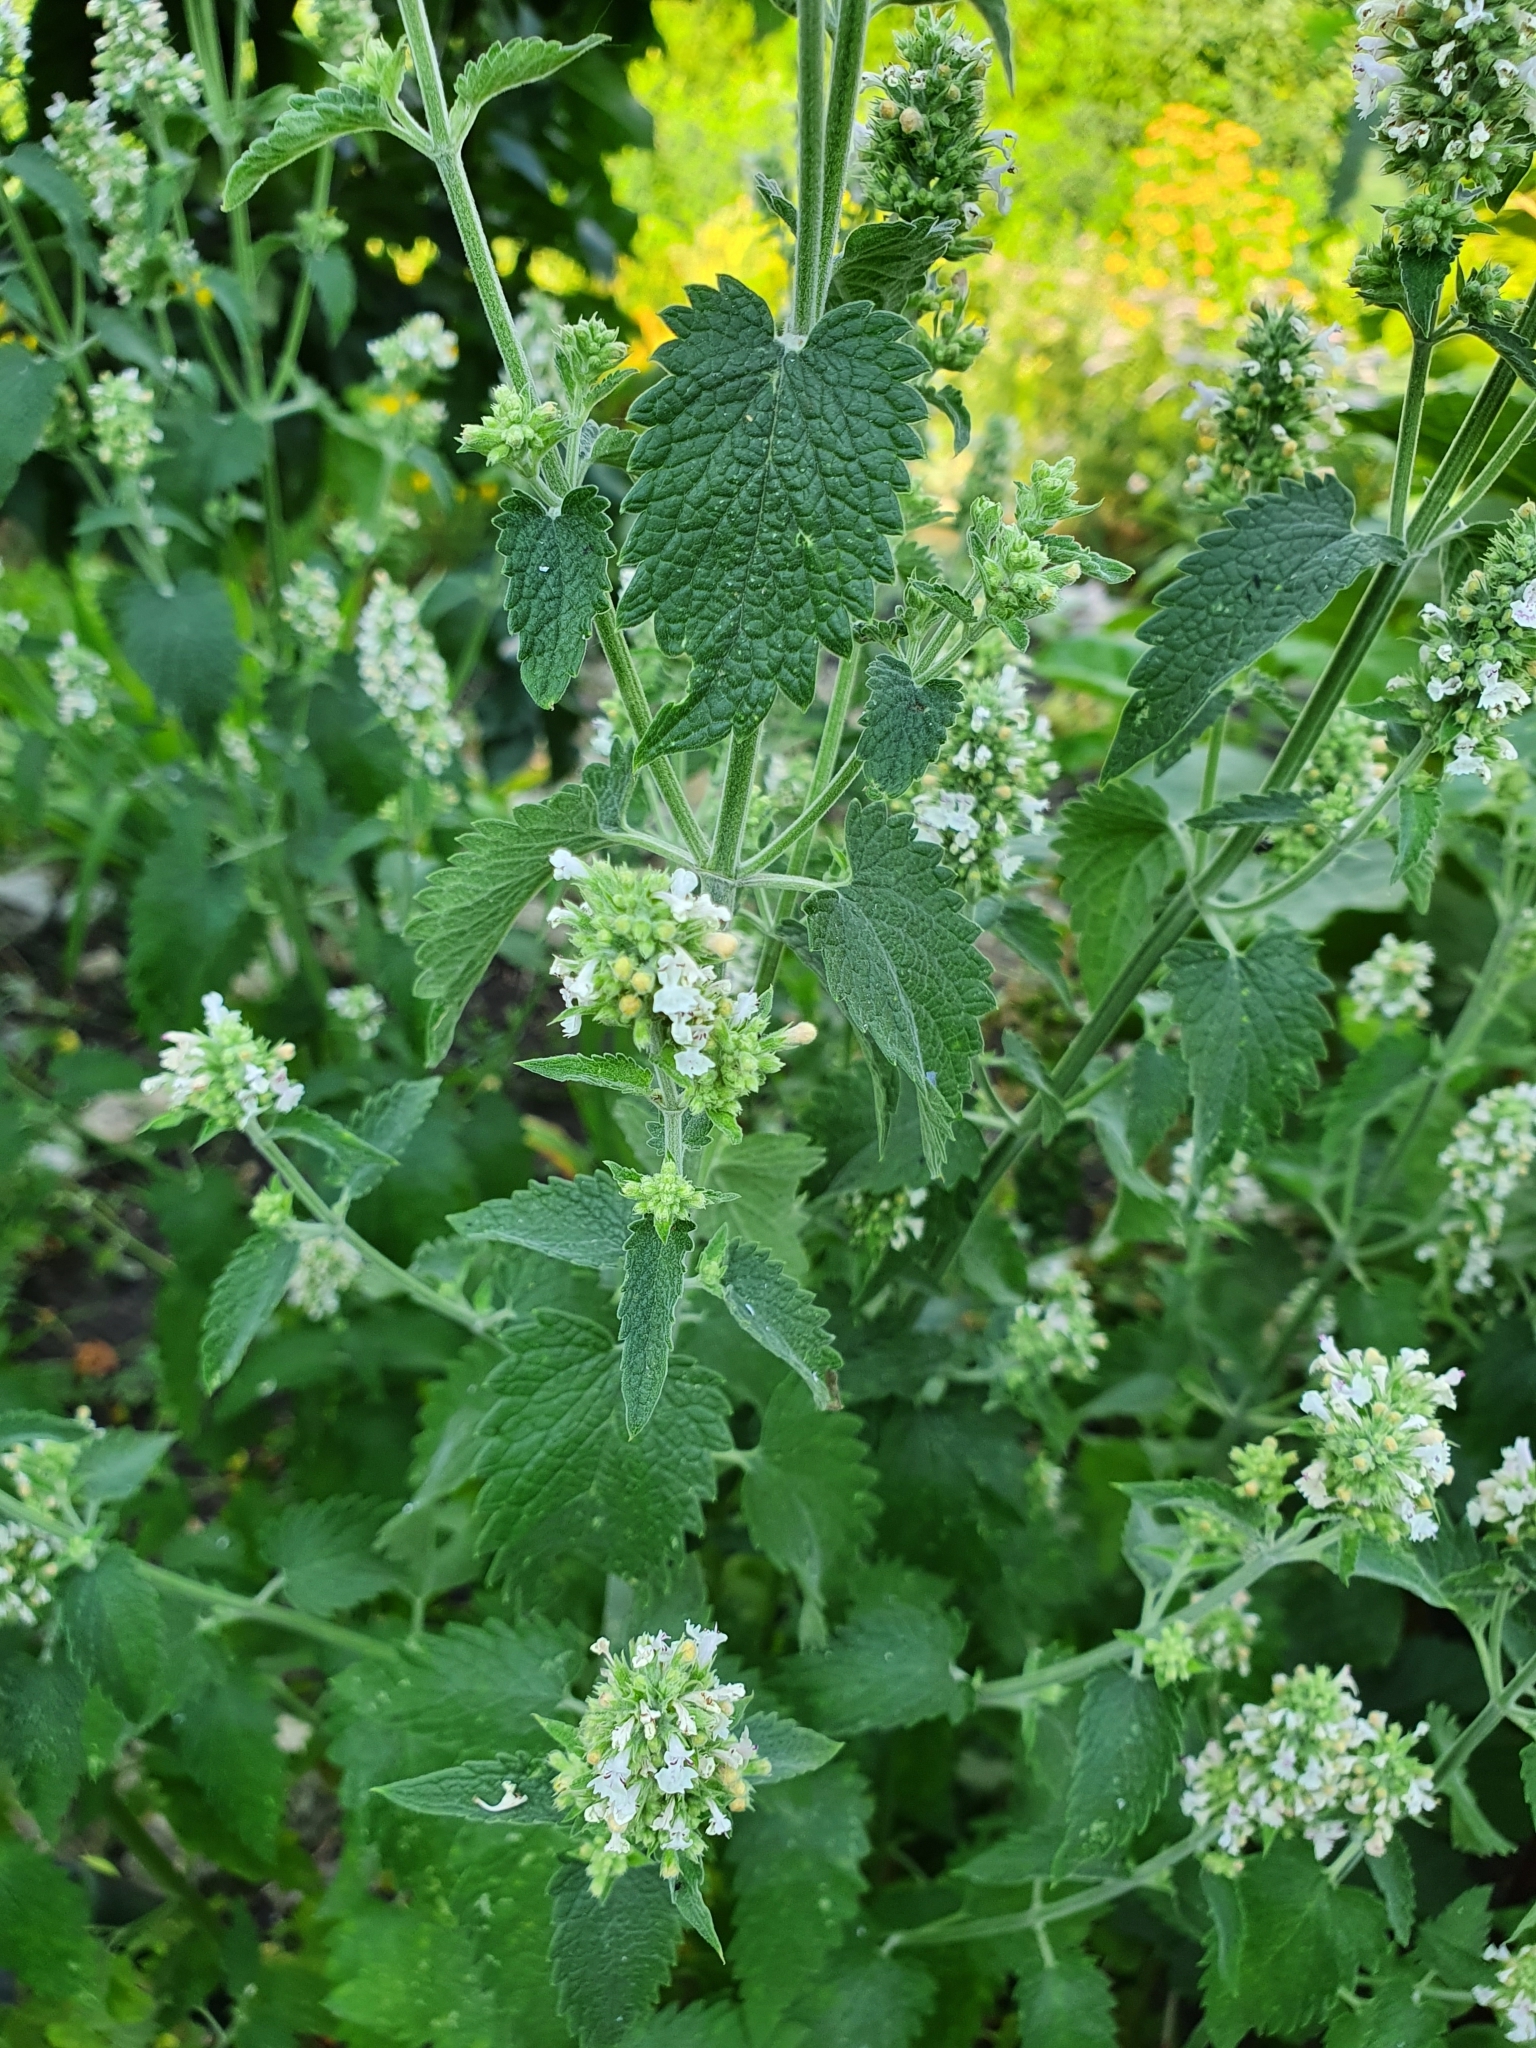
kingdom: Plantae
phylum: Tracheophyta
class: Magnoliopsida
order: Lamiales
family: Lamiaceae
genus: Nepeta
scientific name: Nepeta cataria
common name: Catnip
